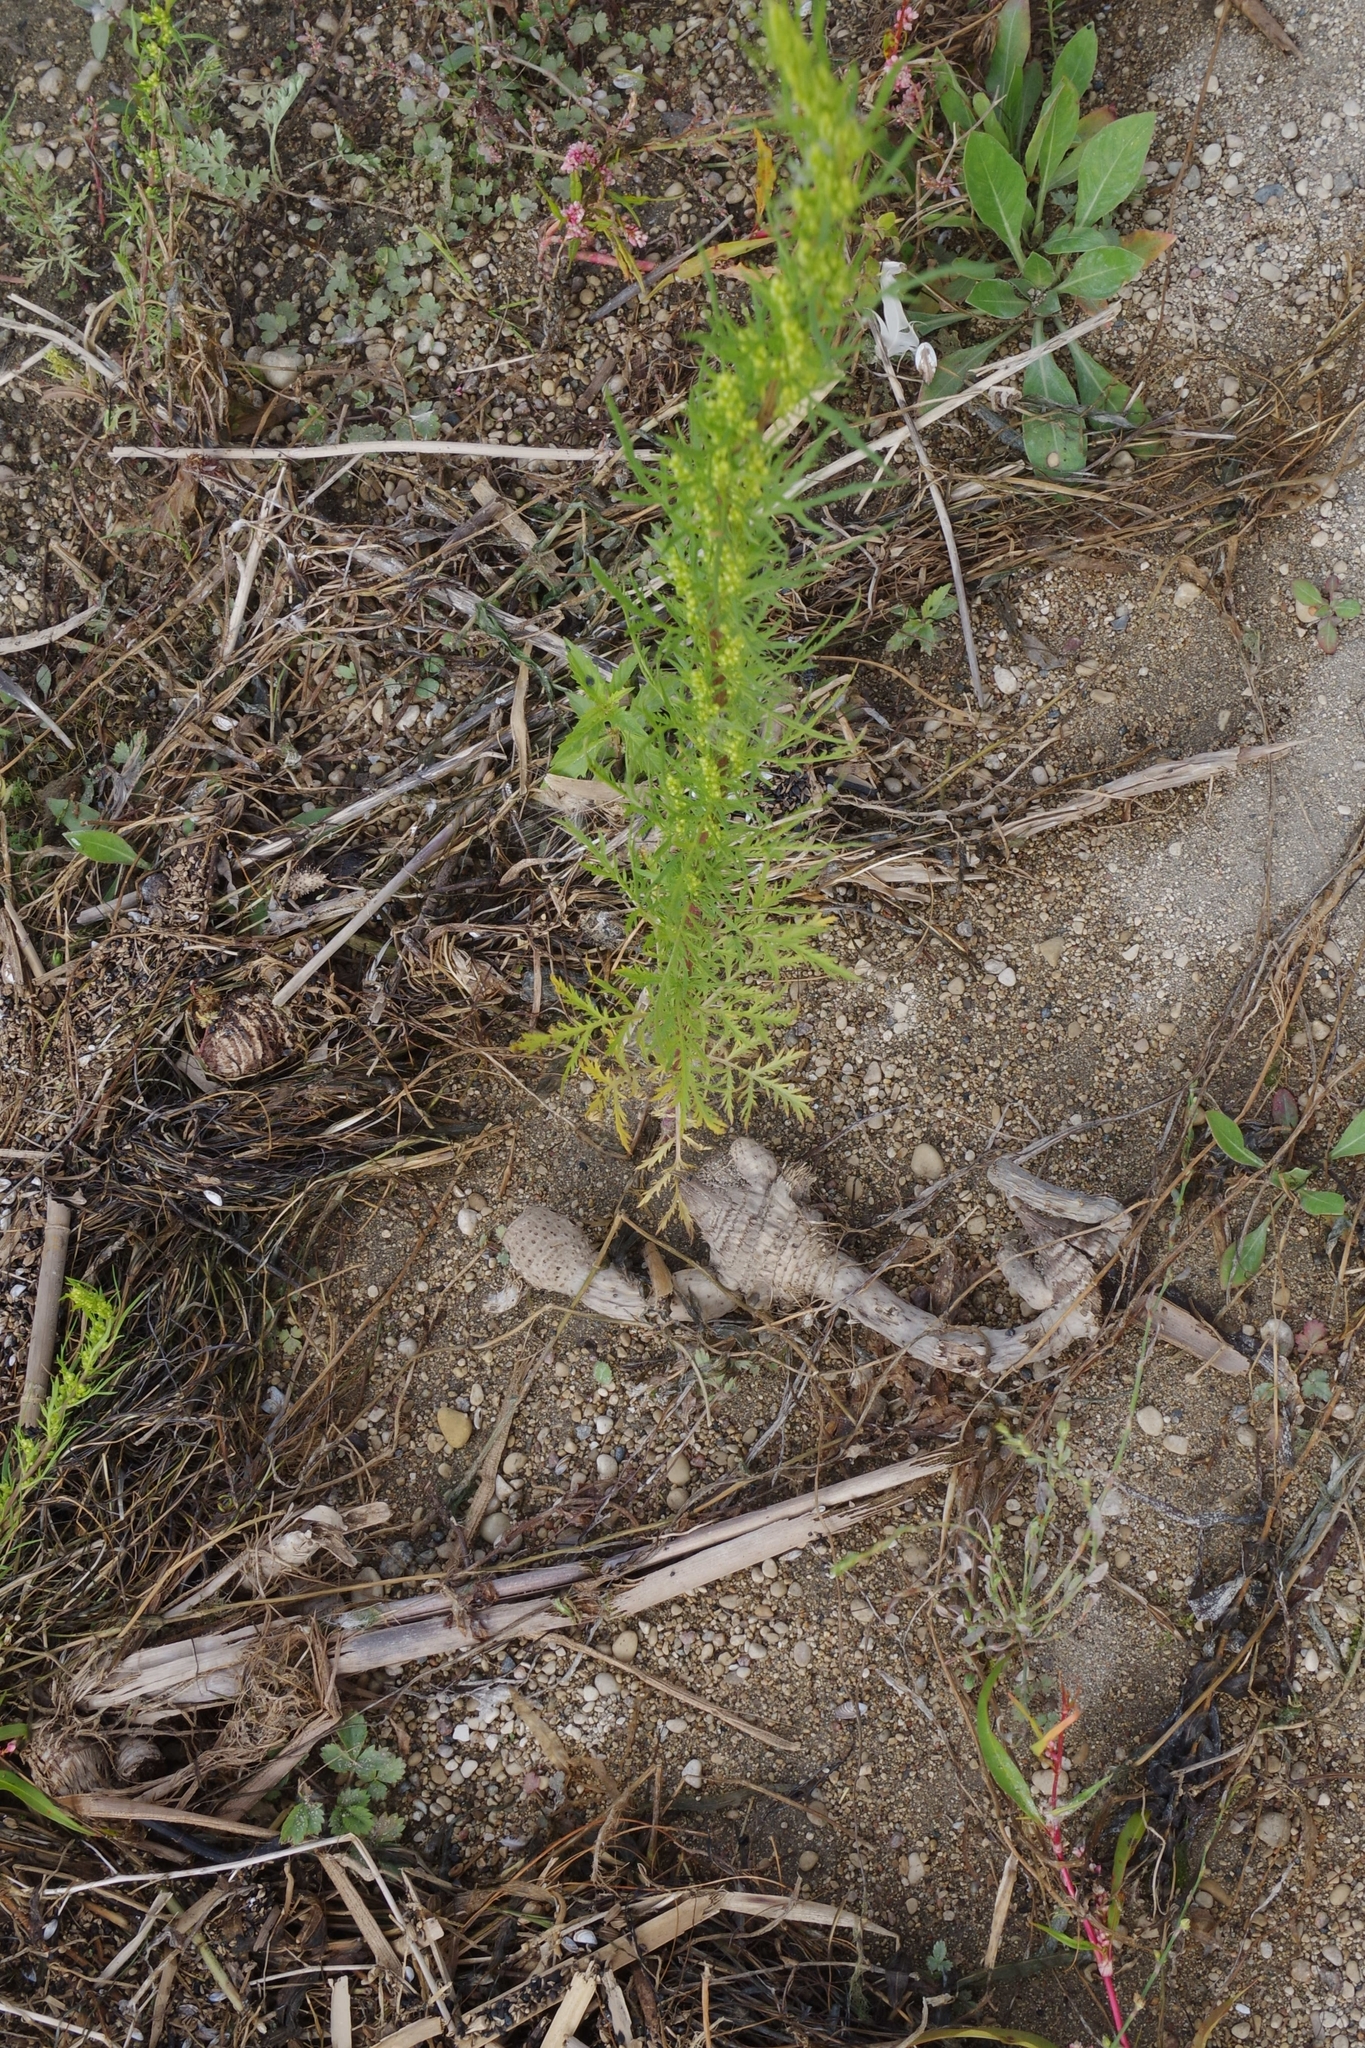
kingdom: Plantae
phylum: Tracheophyta
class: Magnoliopsida
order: Asterales
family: Asteraceae
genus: Artemisia
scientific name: Artemisia campestris
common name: Field wormwood
